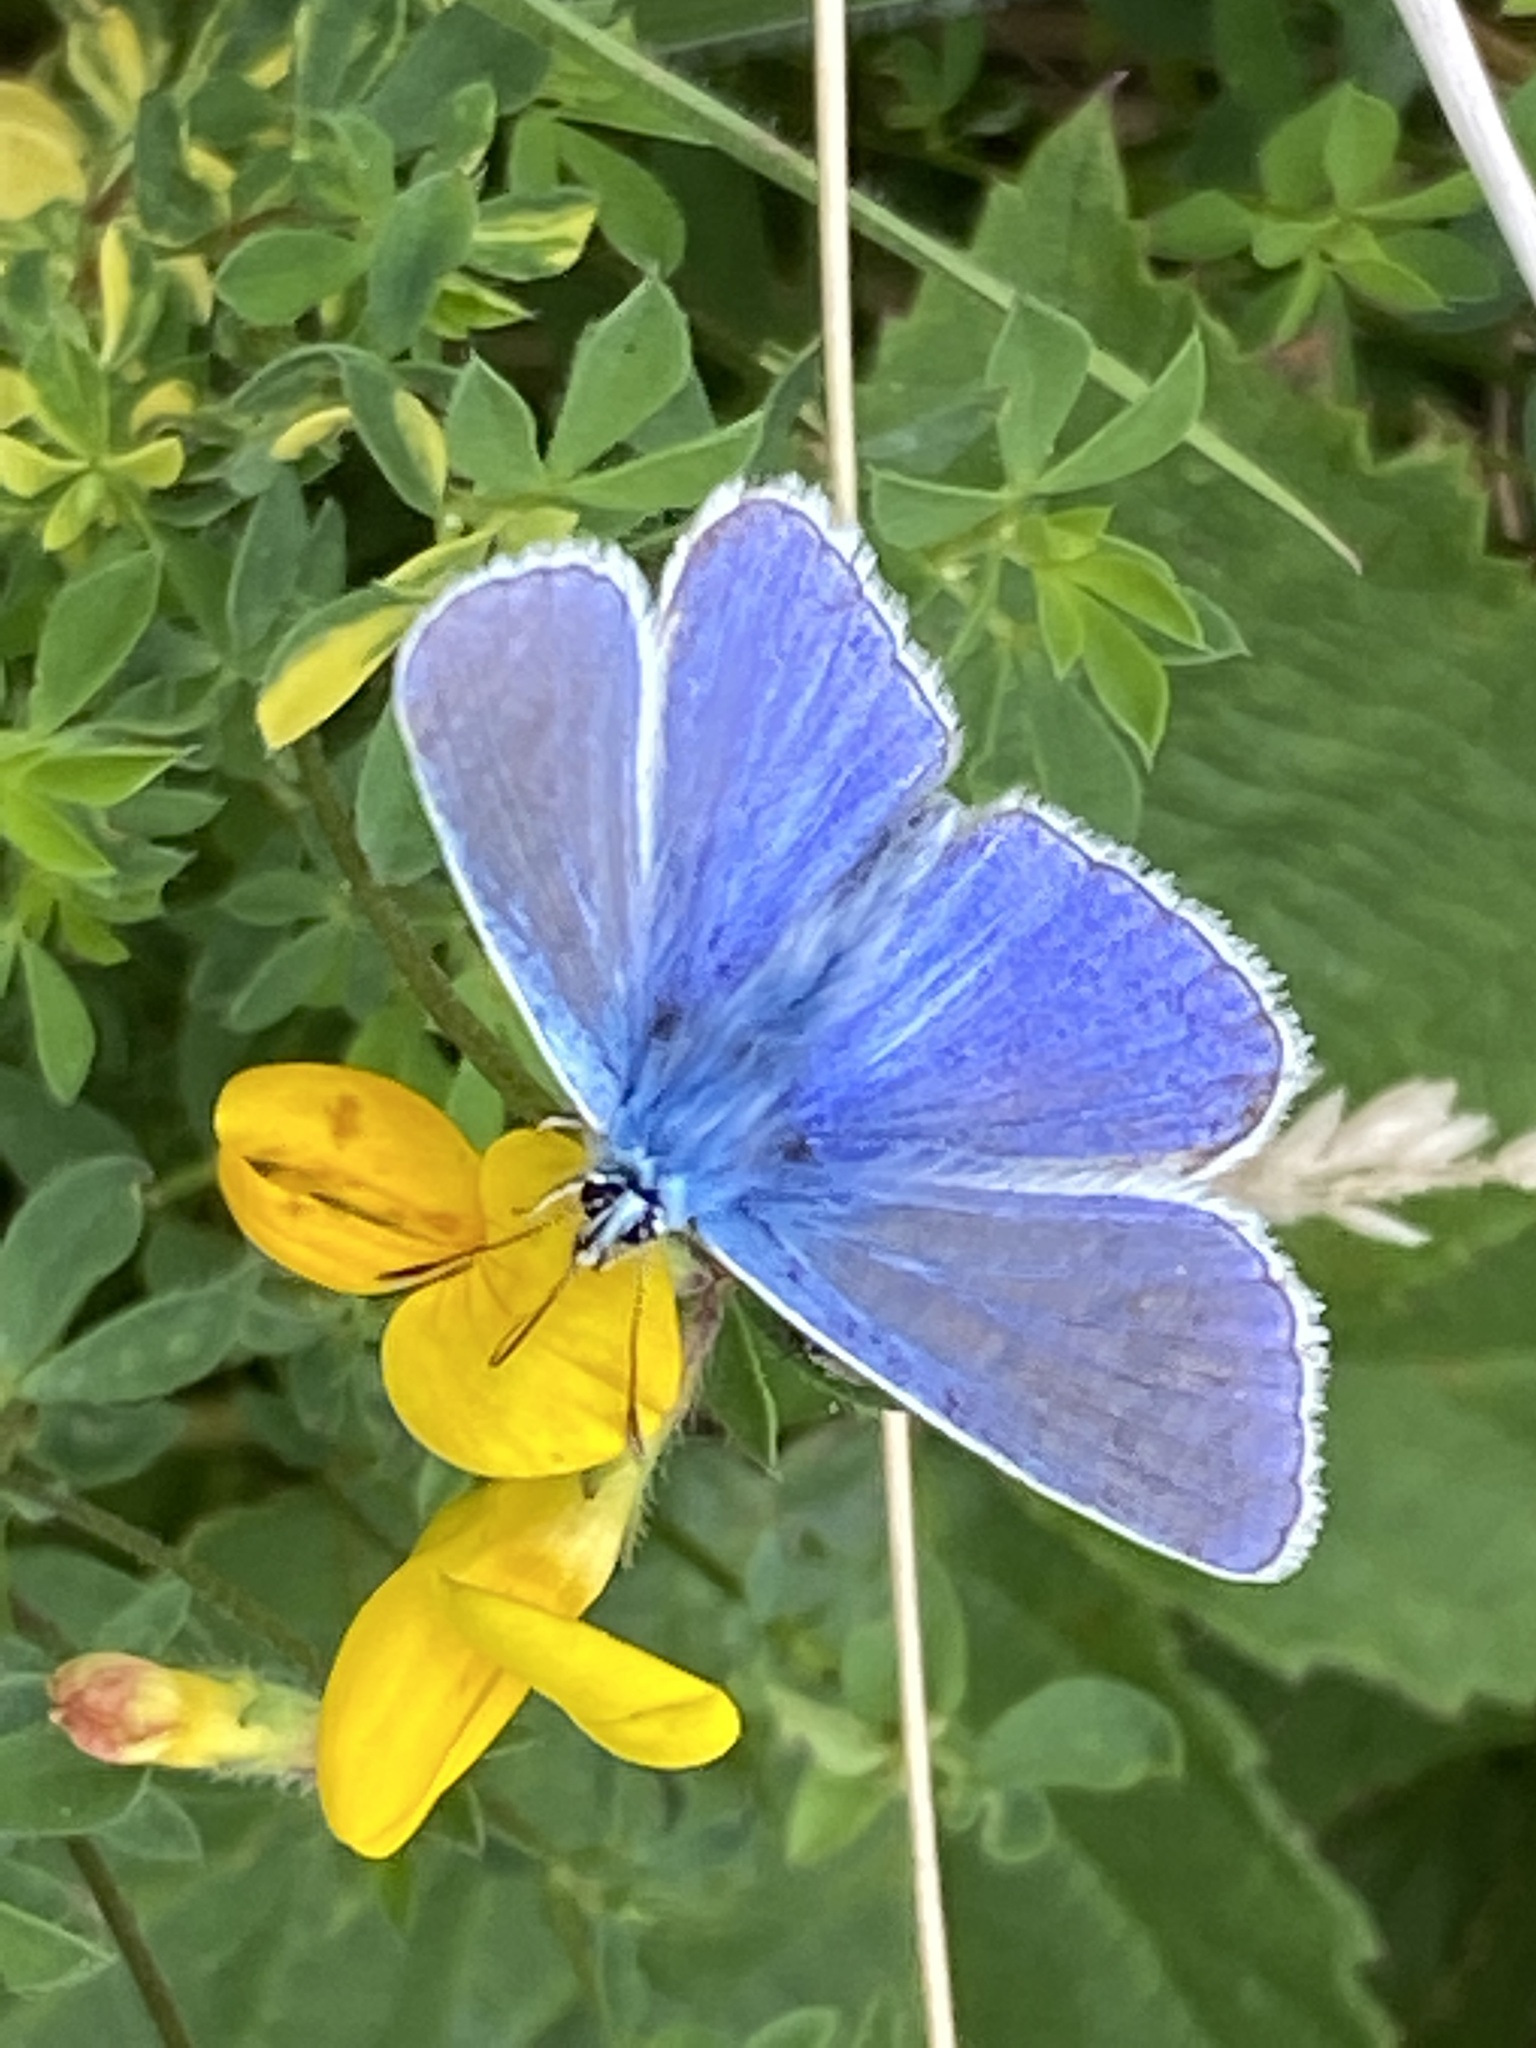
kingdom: Animalia
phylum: Arthropoda
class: Insecta
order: Lepidoptera
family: Lycaenidae
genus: Polyommatus
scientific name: Polyommatus icarus
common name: Common blue
